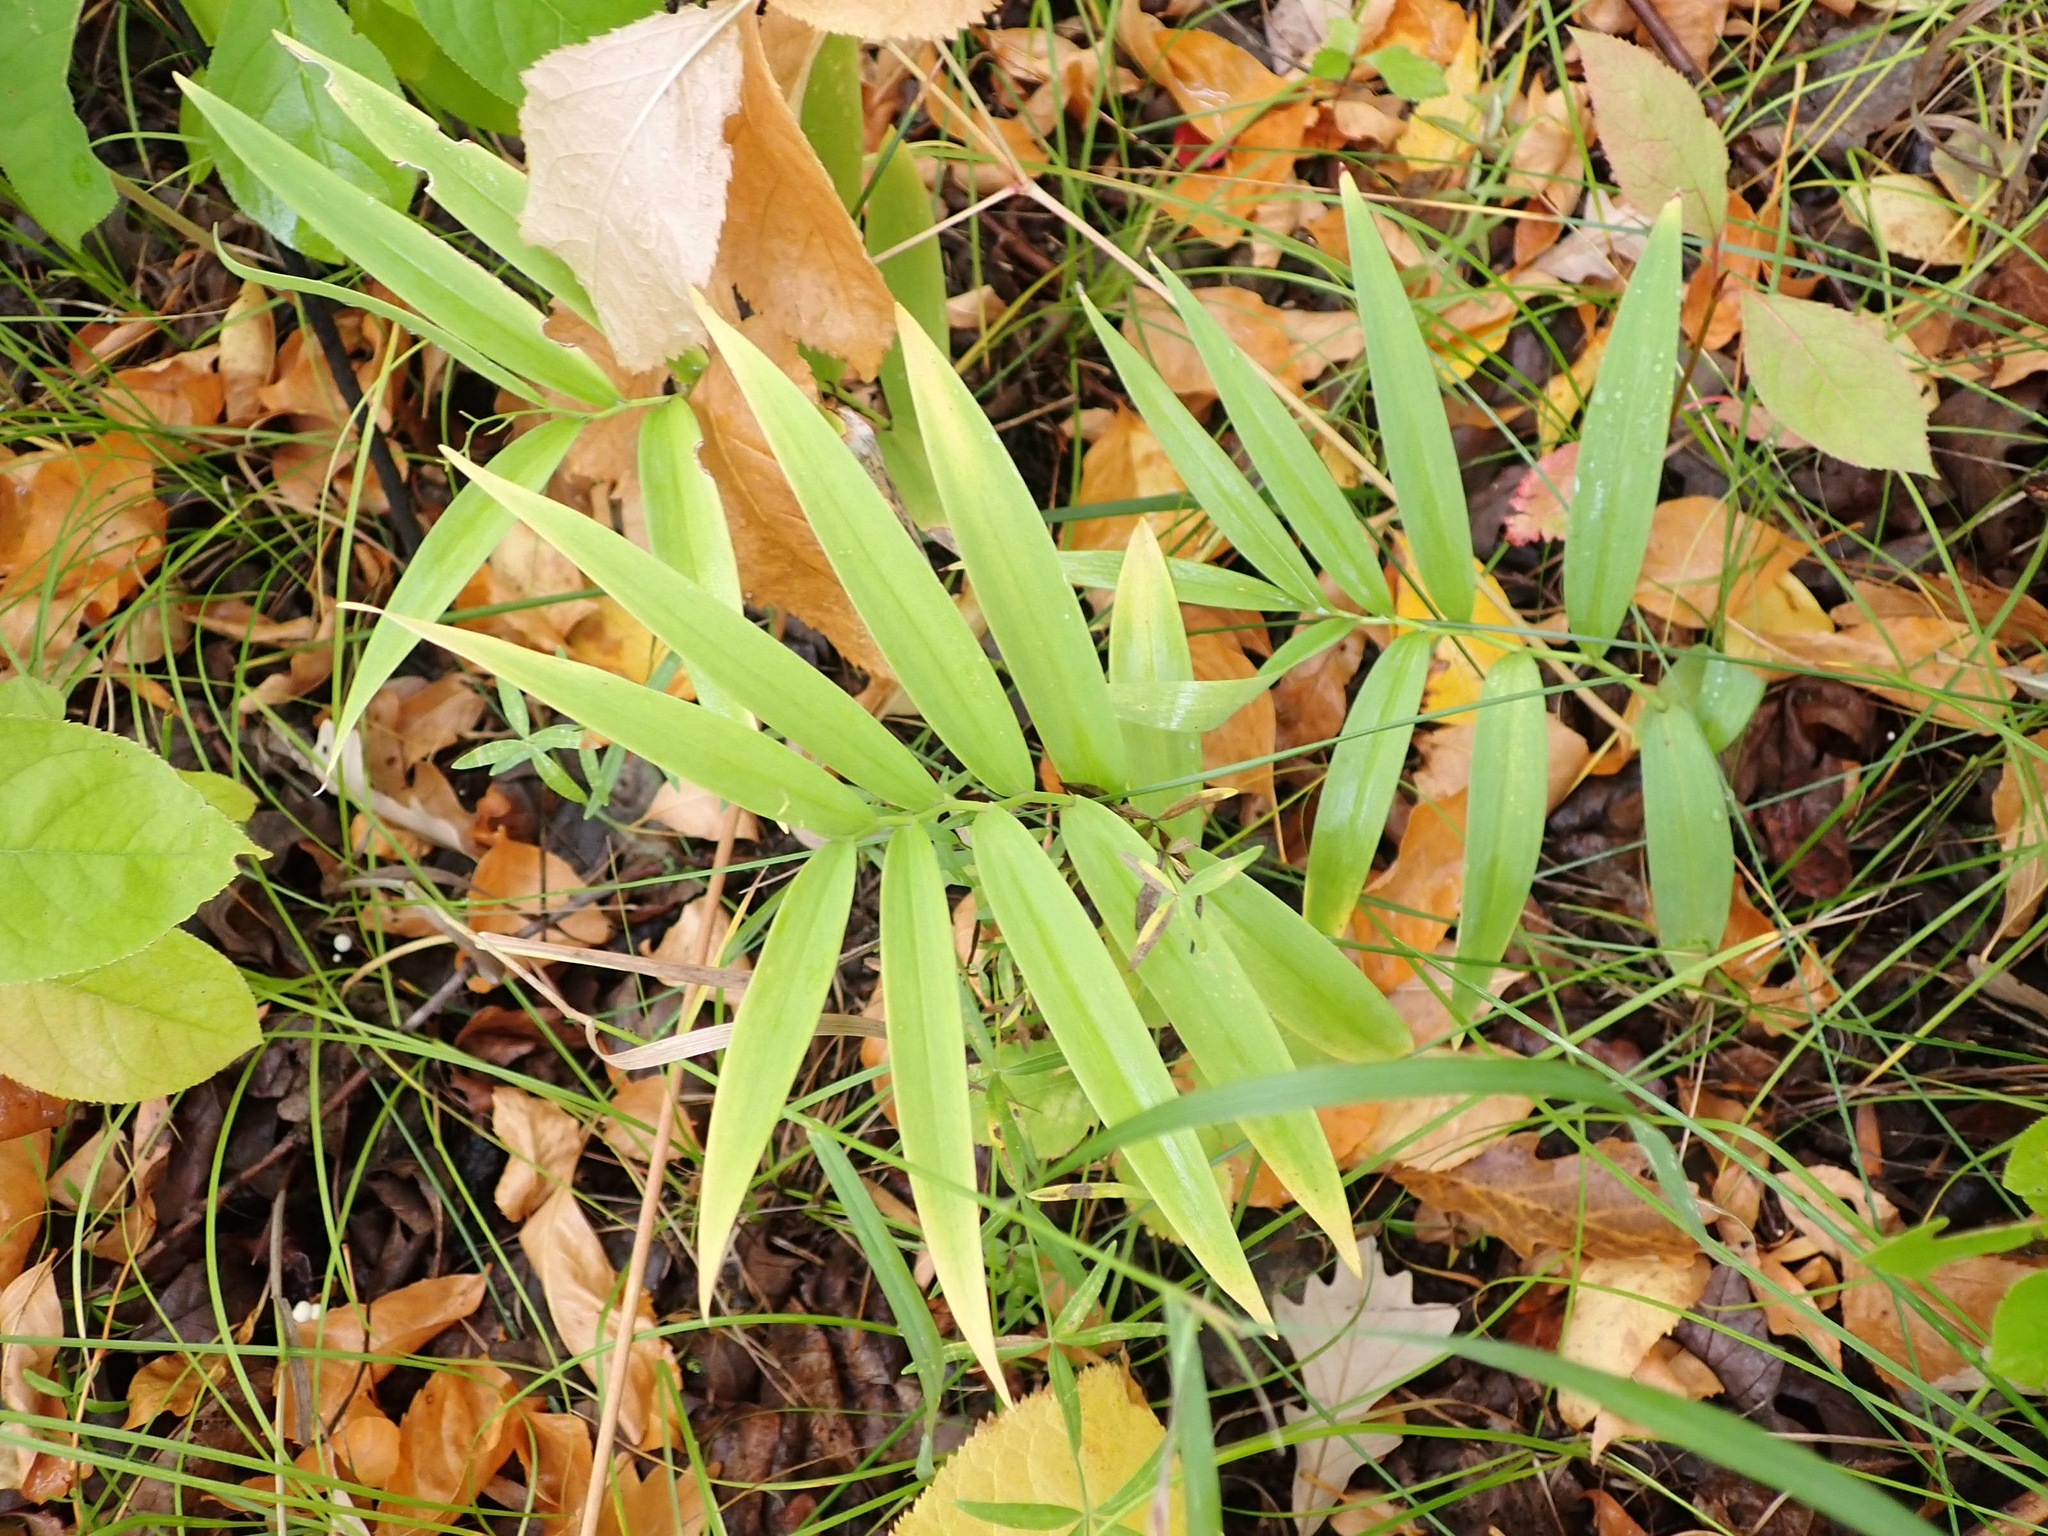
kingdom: Plantae
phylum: Tracheophyta
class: Liliopsida
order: Asparagales
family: Asparagaceae
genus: Maianthemum
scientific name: Maianthemum stellatum
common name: Little false solomon's seal
